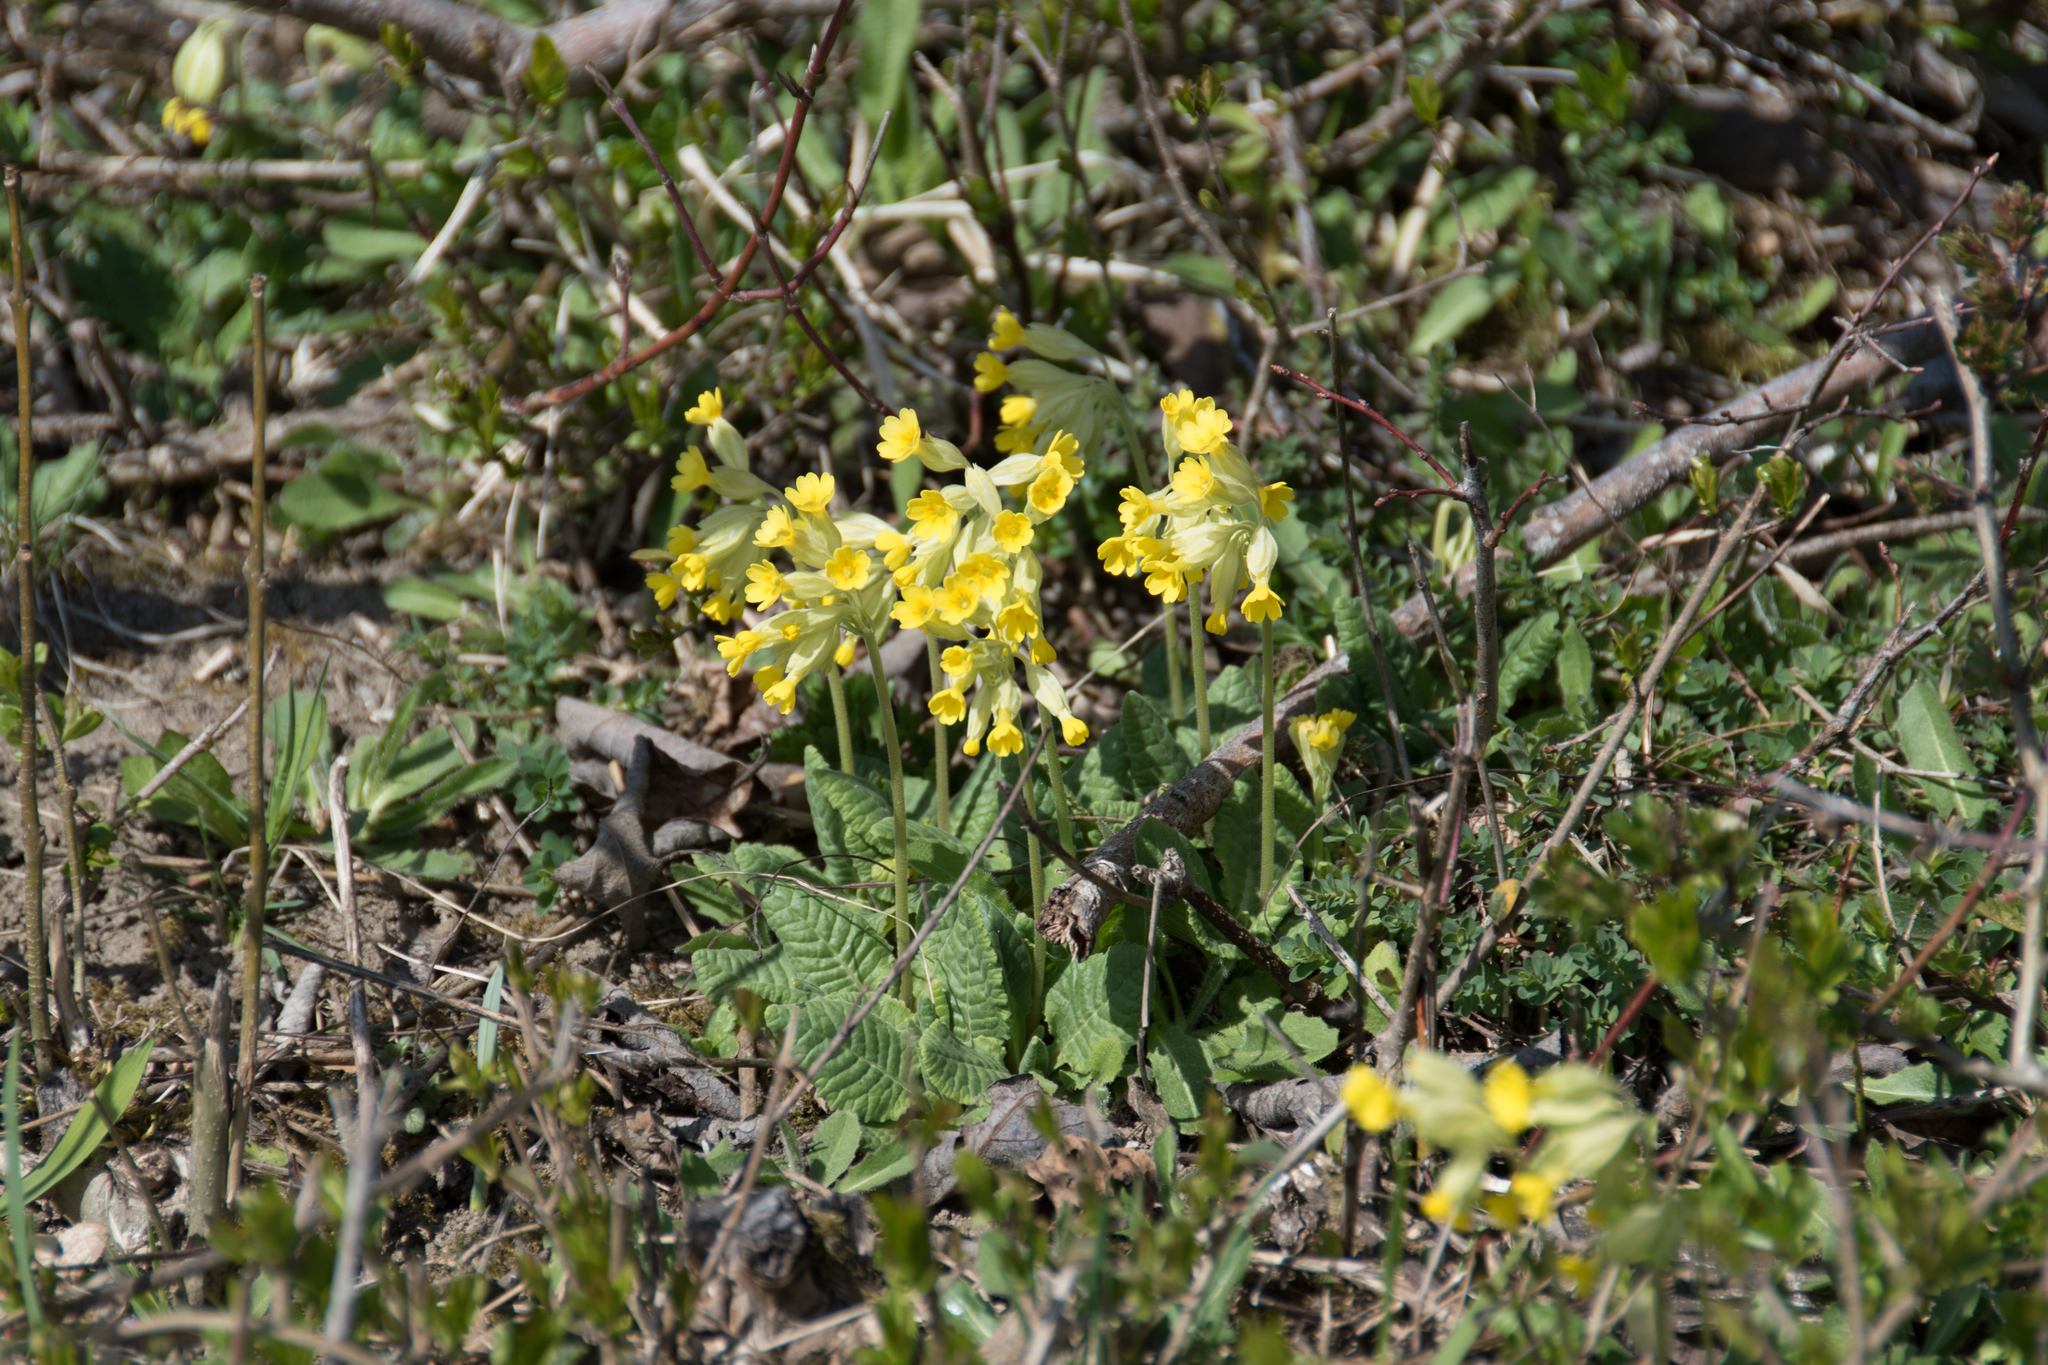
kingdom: Plantae
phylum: Tracheophyta
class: Magnoliopsida
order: Ericales
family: Primulaceae
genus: Primula
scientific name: Primula veris
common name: Cowslip
